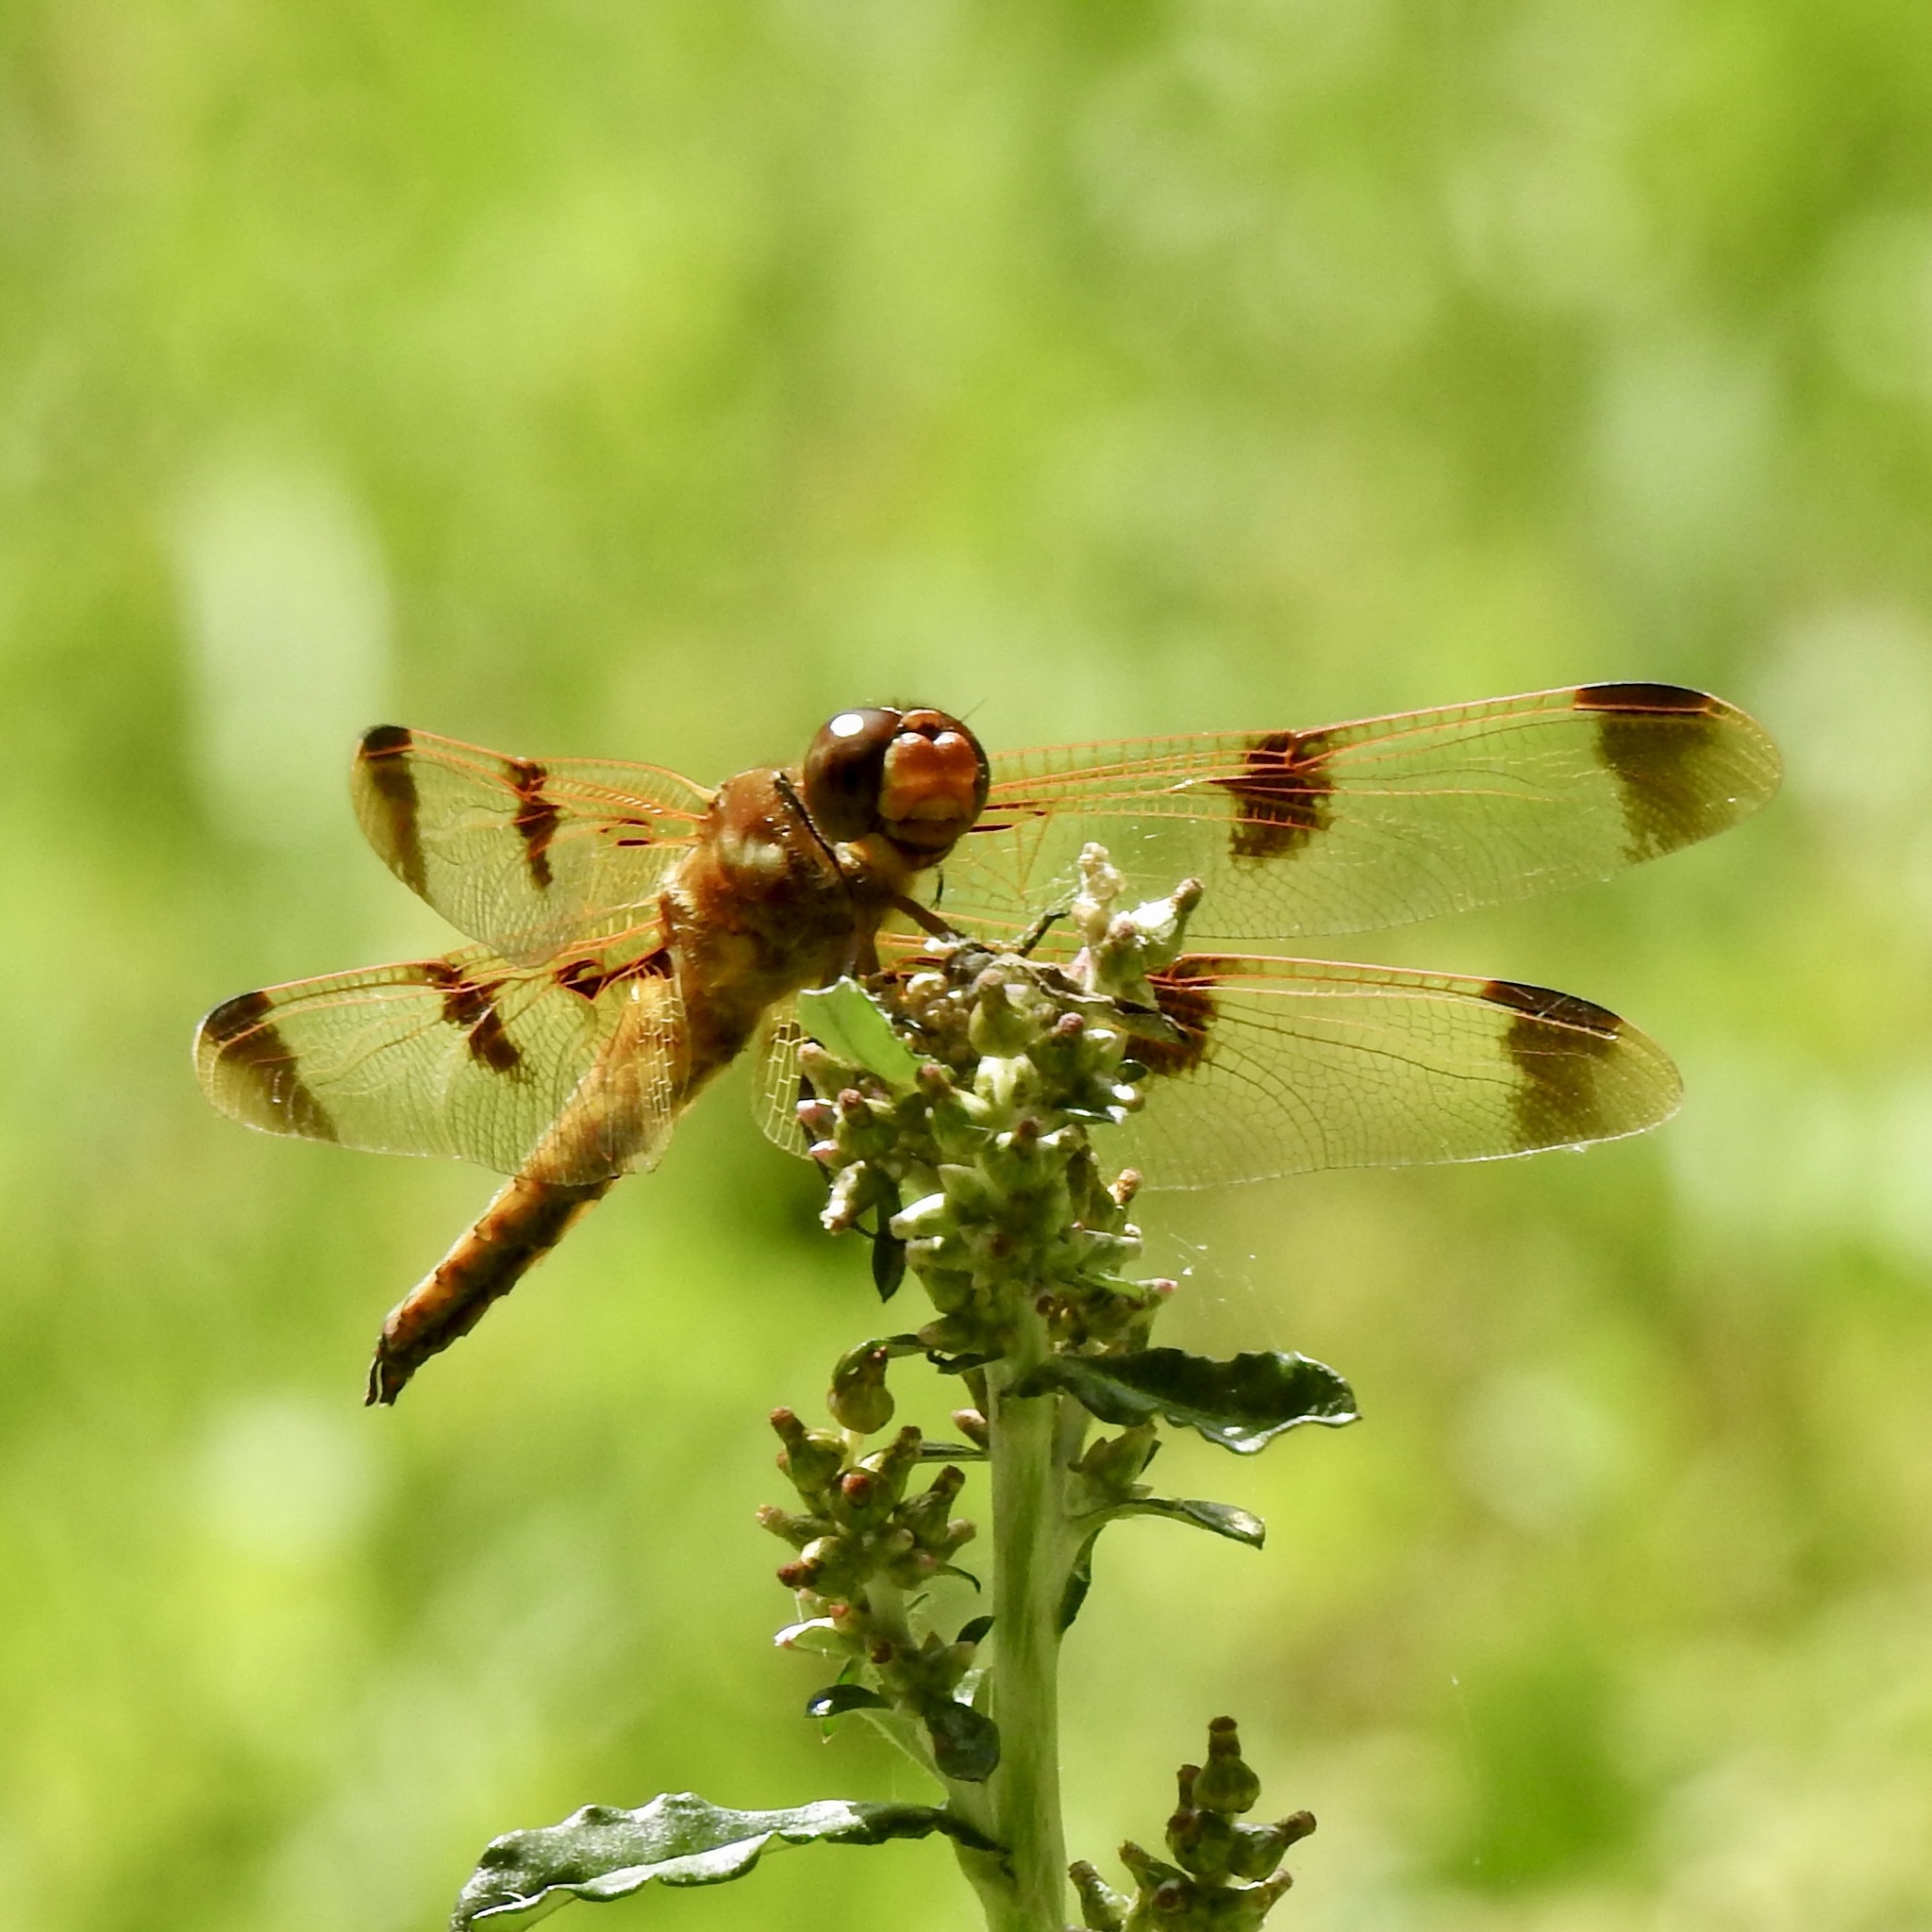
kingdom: Animalia
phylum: Arthropoda
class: Insecta
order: Odonata
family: Libellulidae
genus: Libellula
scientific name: Libellula semifasciata
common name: Painted skimmer
